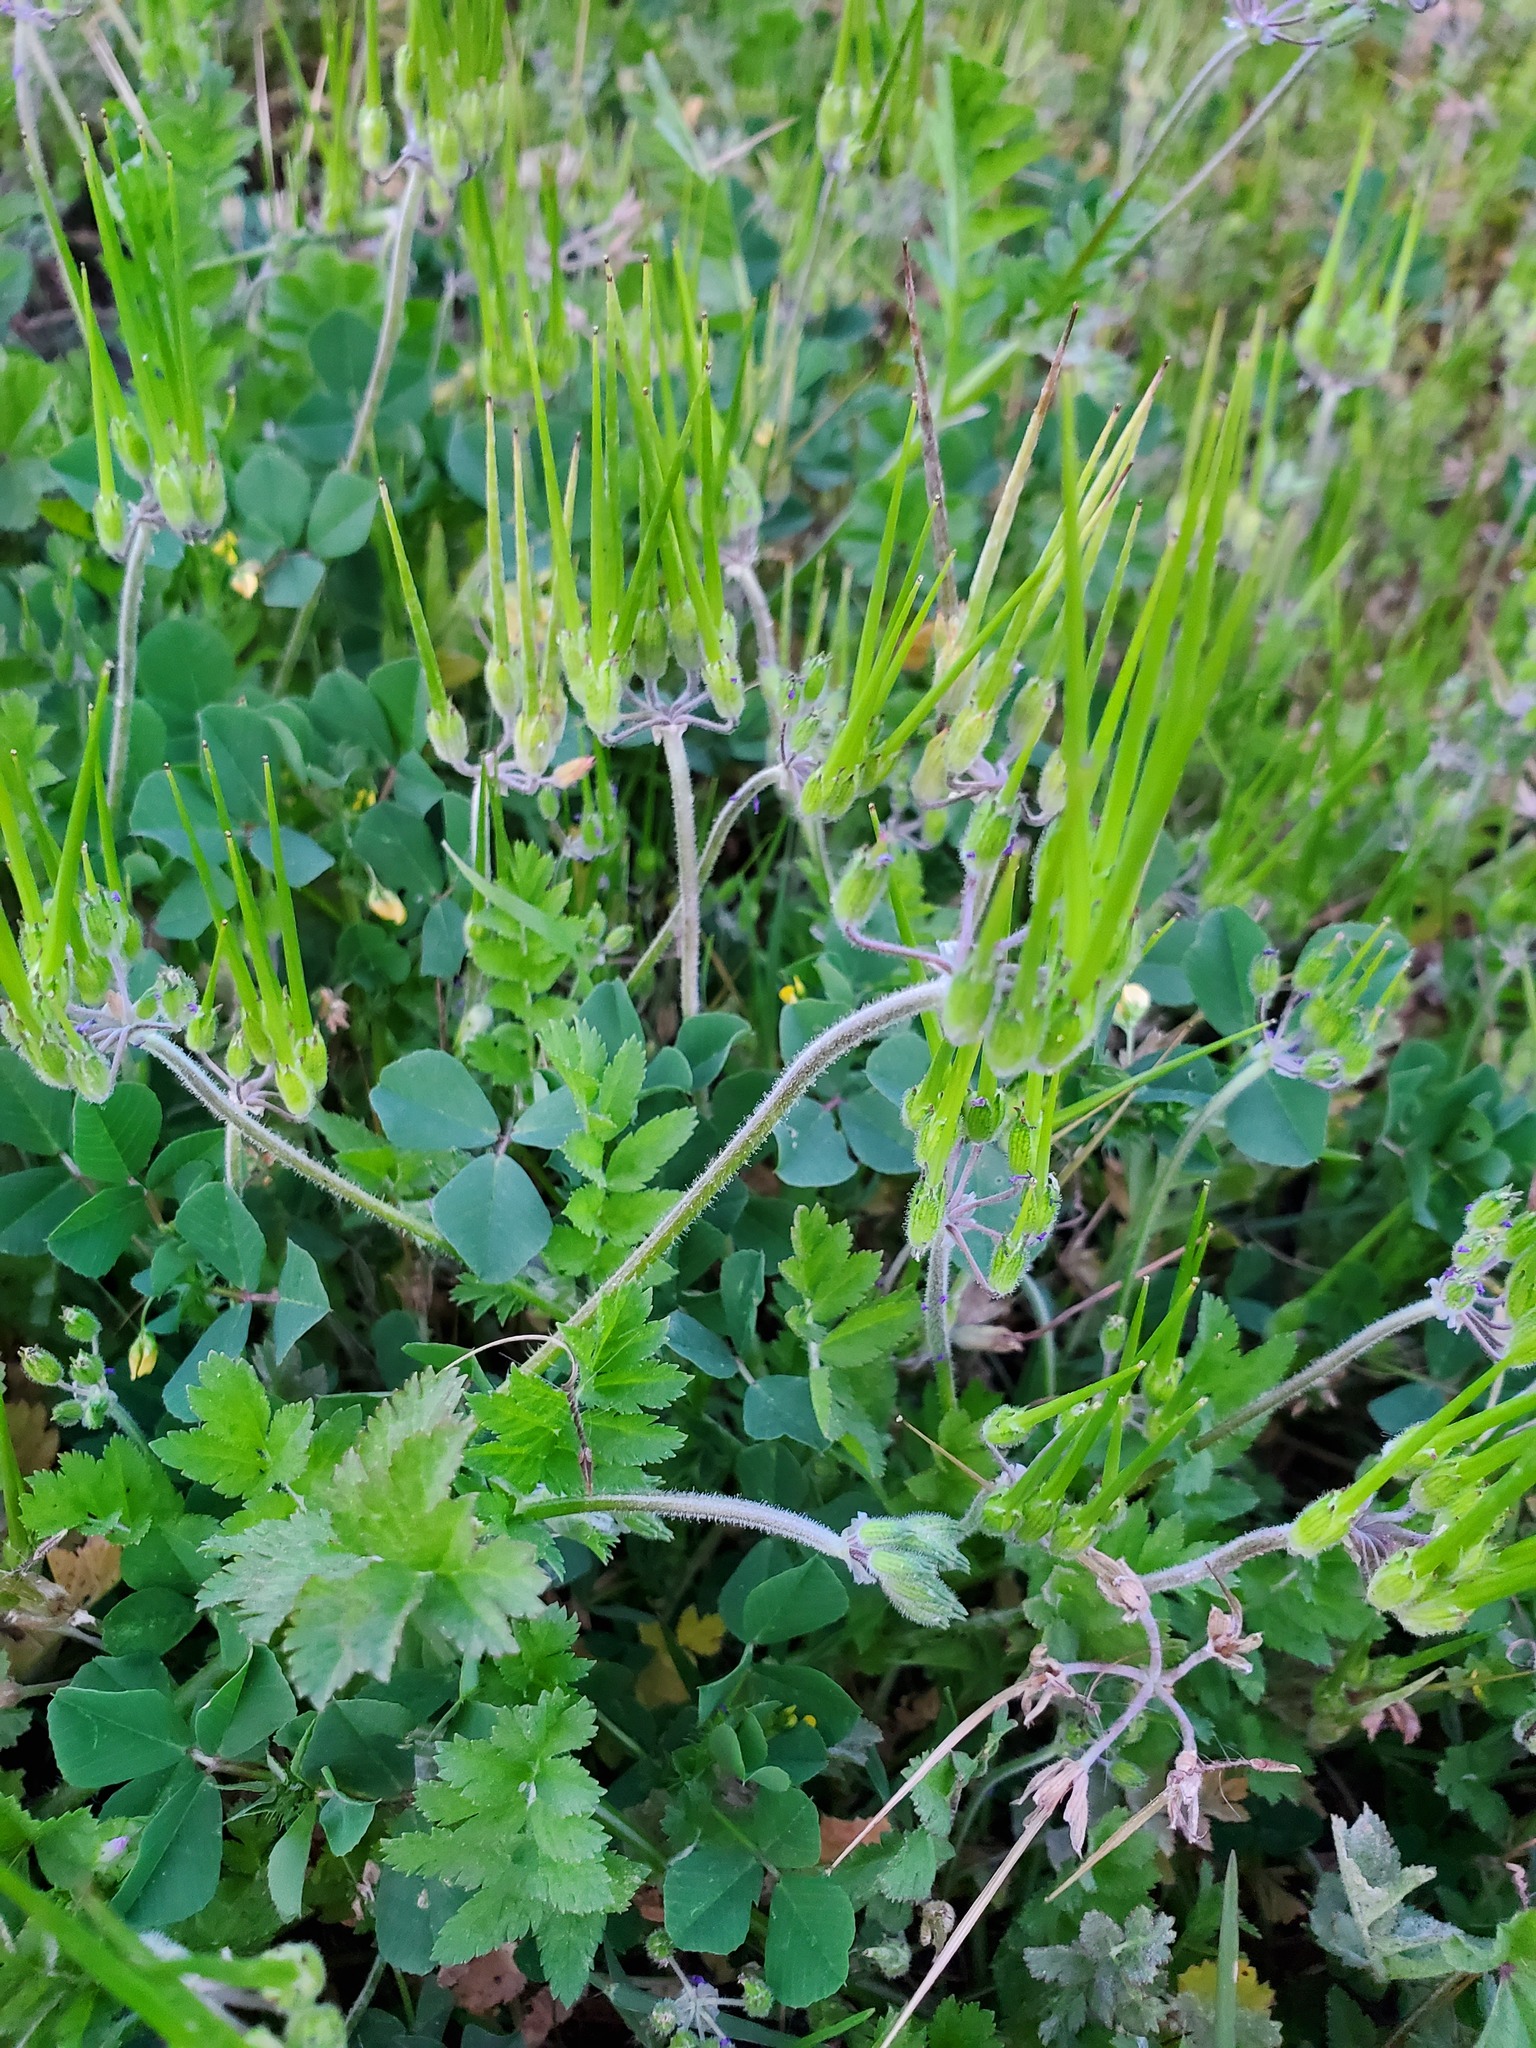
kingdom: Plantae
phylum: Tracheophyta
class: Magnoliopsida
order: Geraniales
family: Geraniaceae
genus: Erodium
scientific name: Erodium moschatum
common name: Musk stork's-bill
